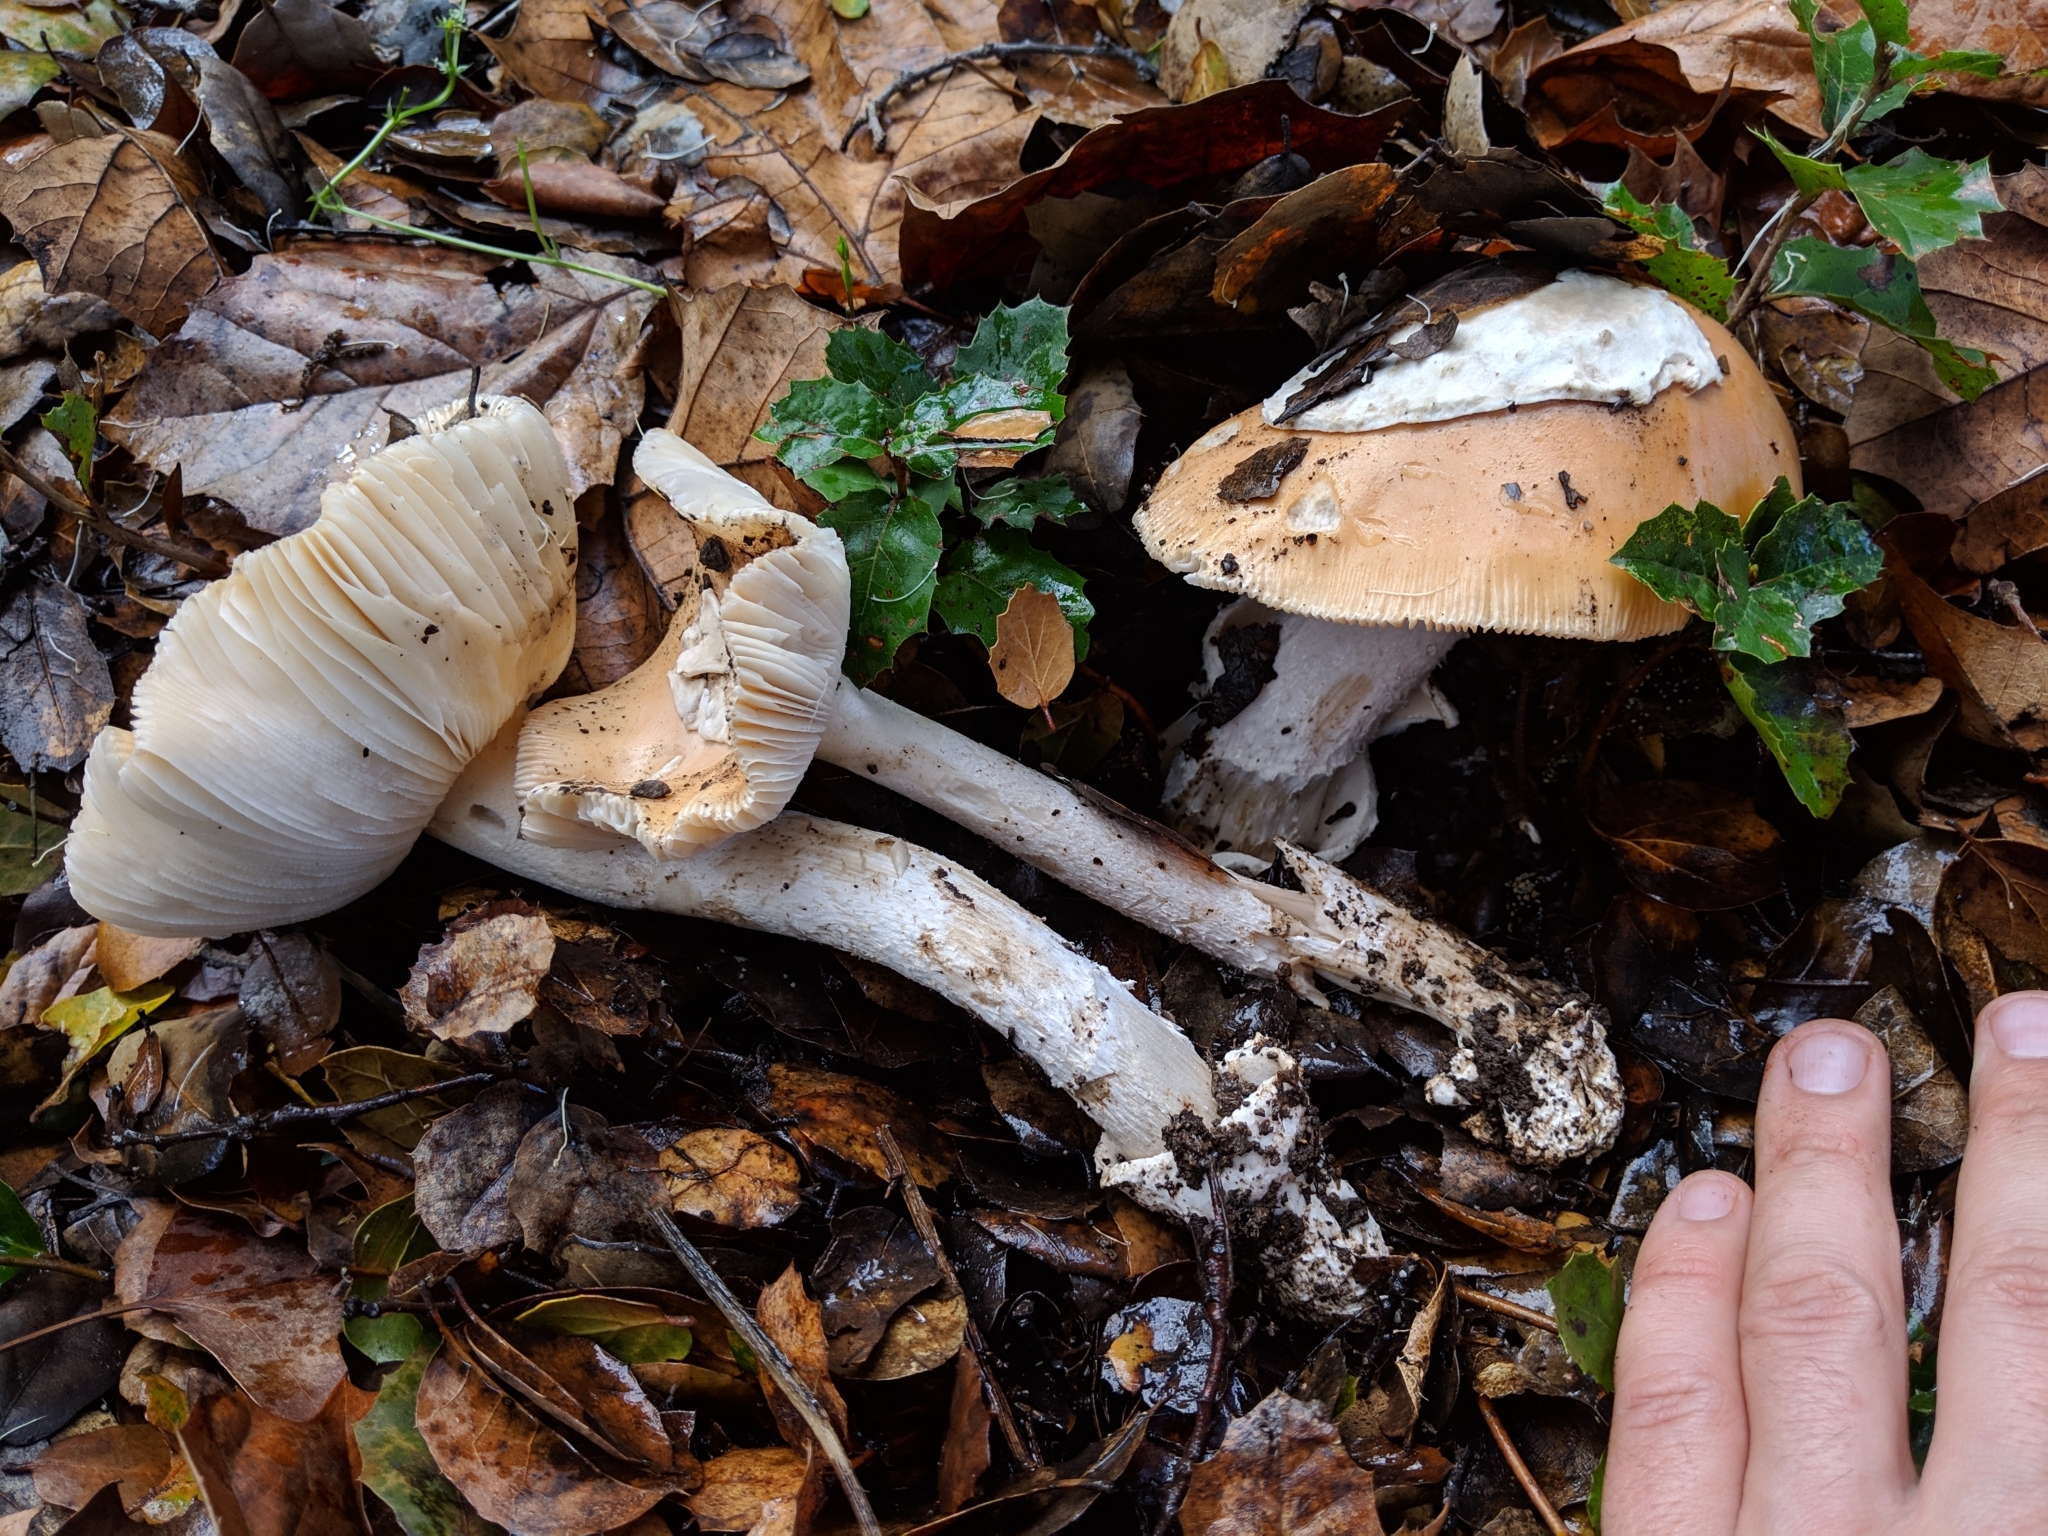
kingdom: Fungi
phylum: Basidiomycota
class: Agaricomycetes
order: Agaricales
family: Amanitaceae
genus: Amanita
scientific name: Amanita velosa
